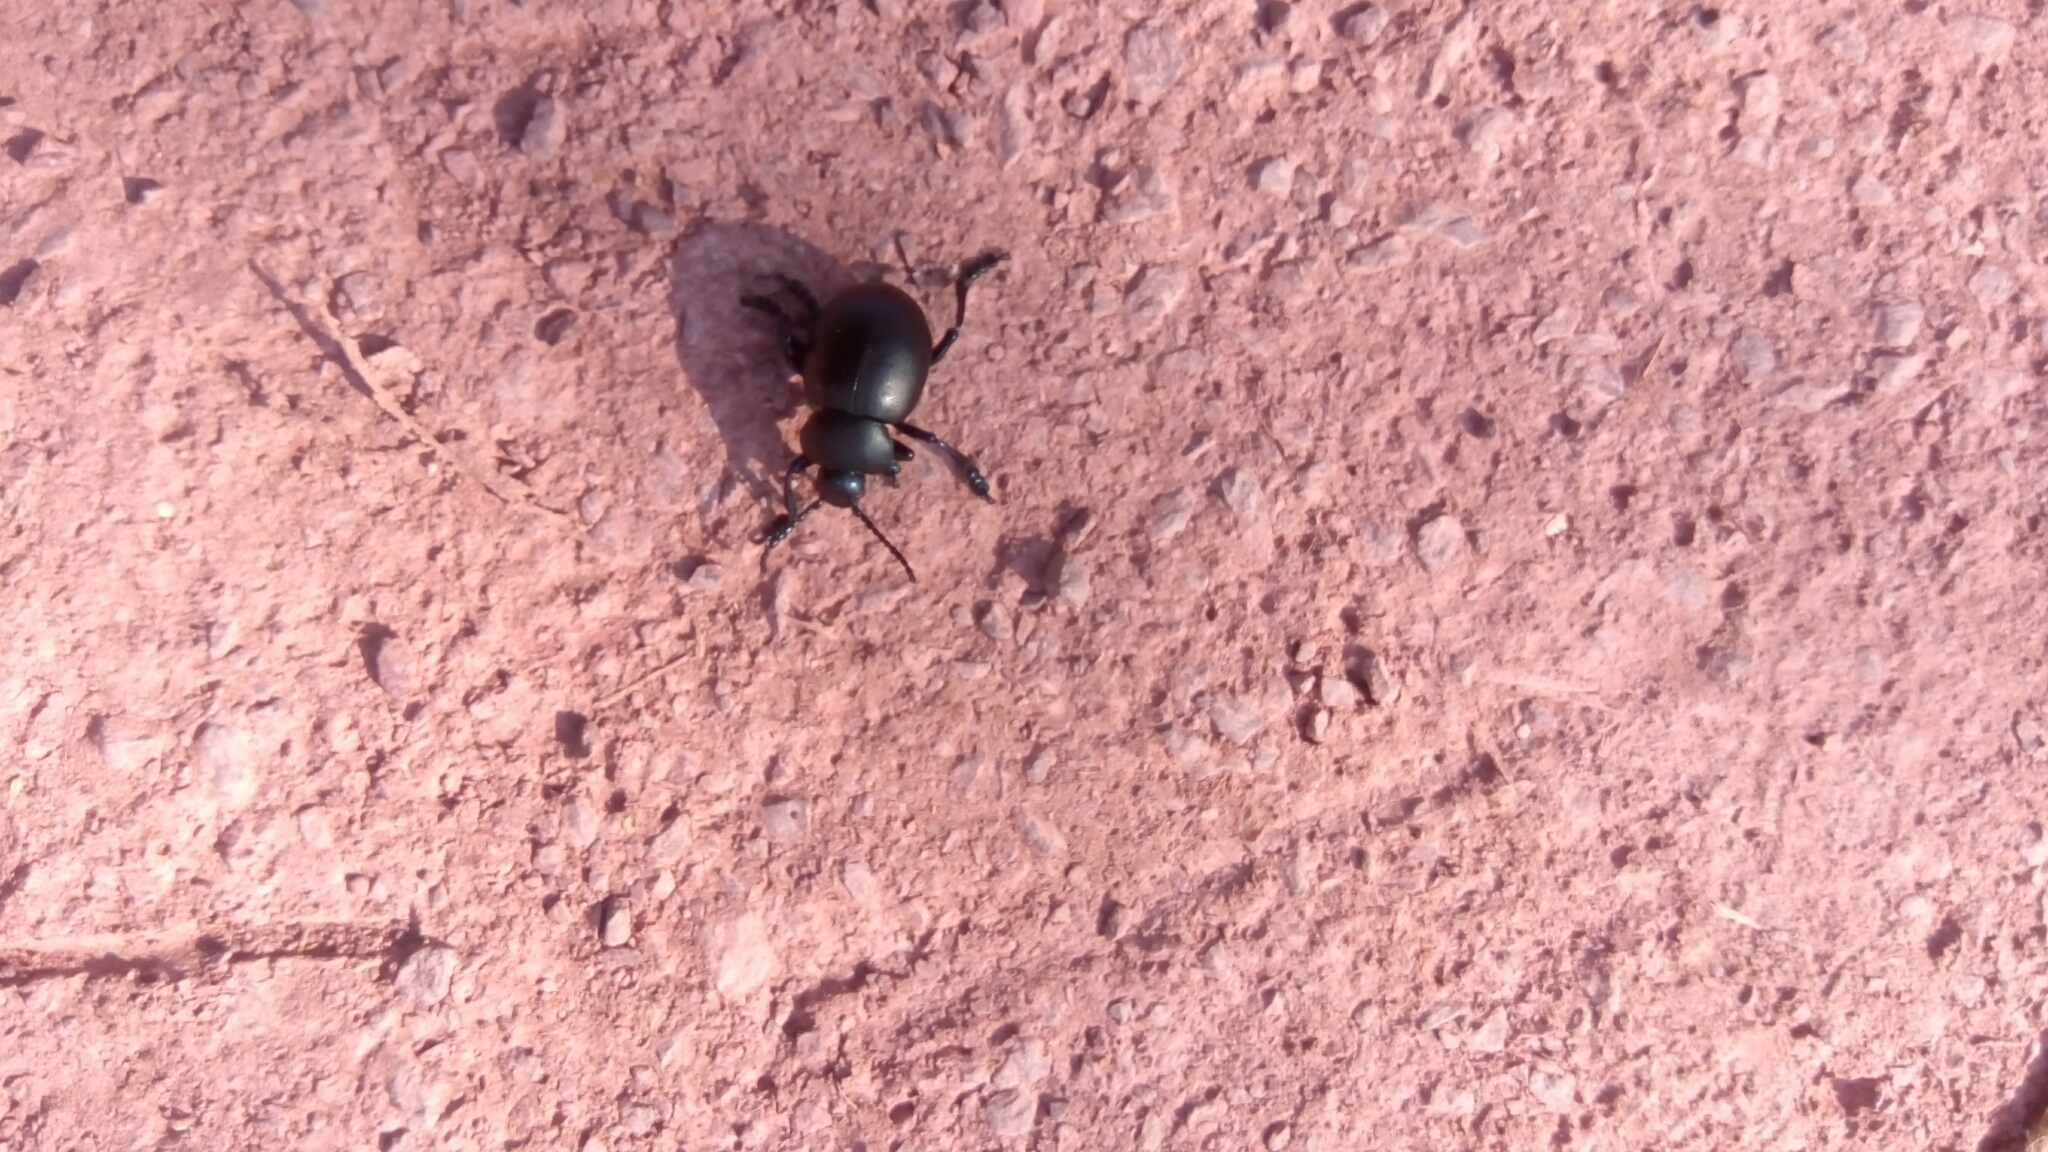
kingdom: Animalia
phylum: Arthropoda
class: Insecta
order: Coleoptera
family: Chrysomelidae
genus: Timarcha
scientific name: Timarcha tenebricosa
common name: Bloody-nosed beetle
